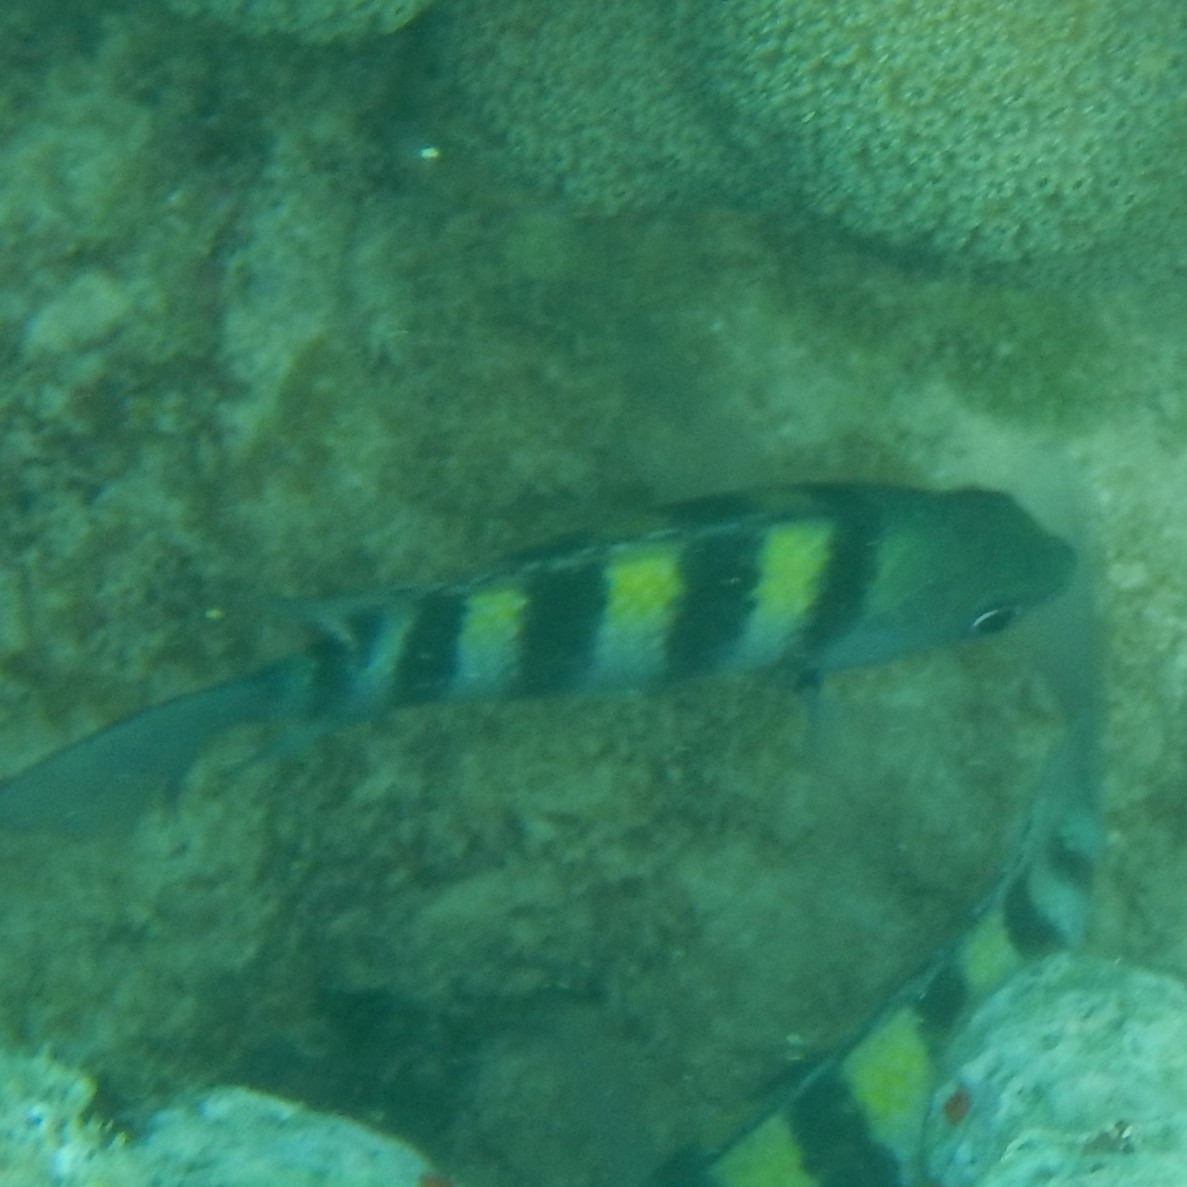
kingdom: Animalia
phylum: Chordata
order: Perciformes
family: Pomacentridae
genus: Abudefduf
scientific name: Abudefduf saxatilis
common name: Sergeant major
